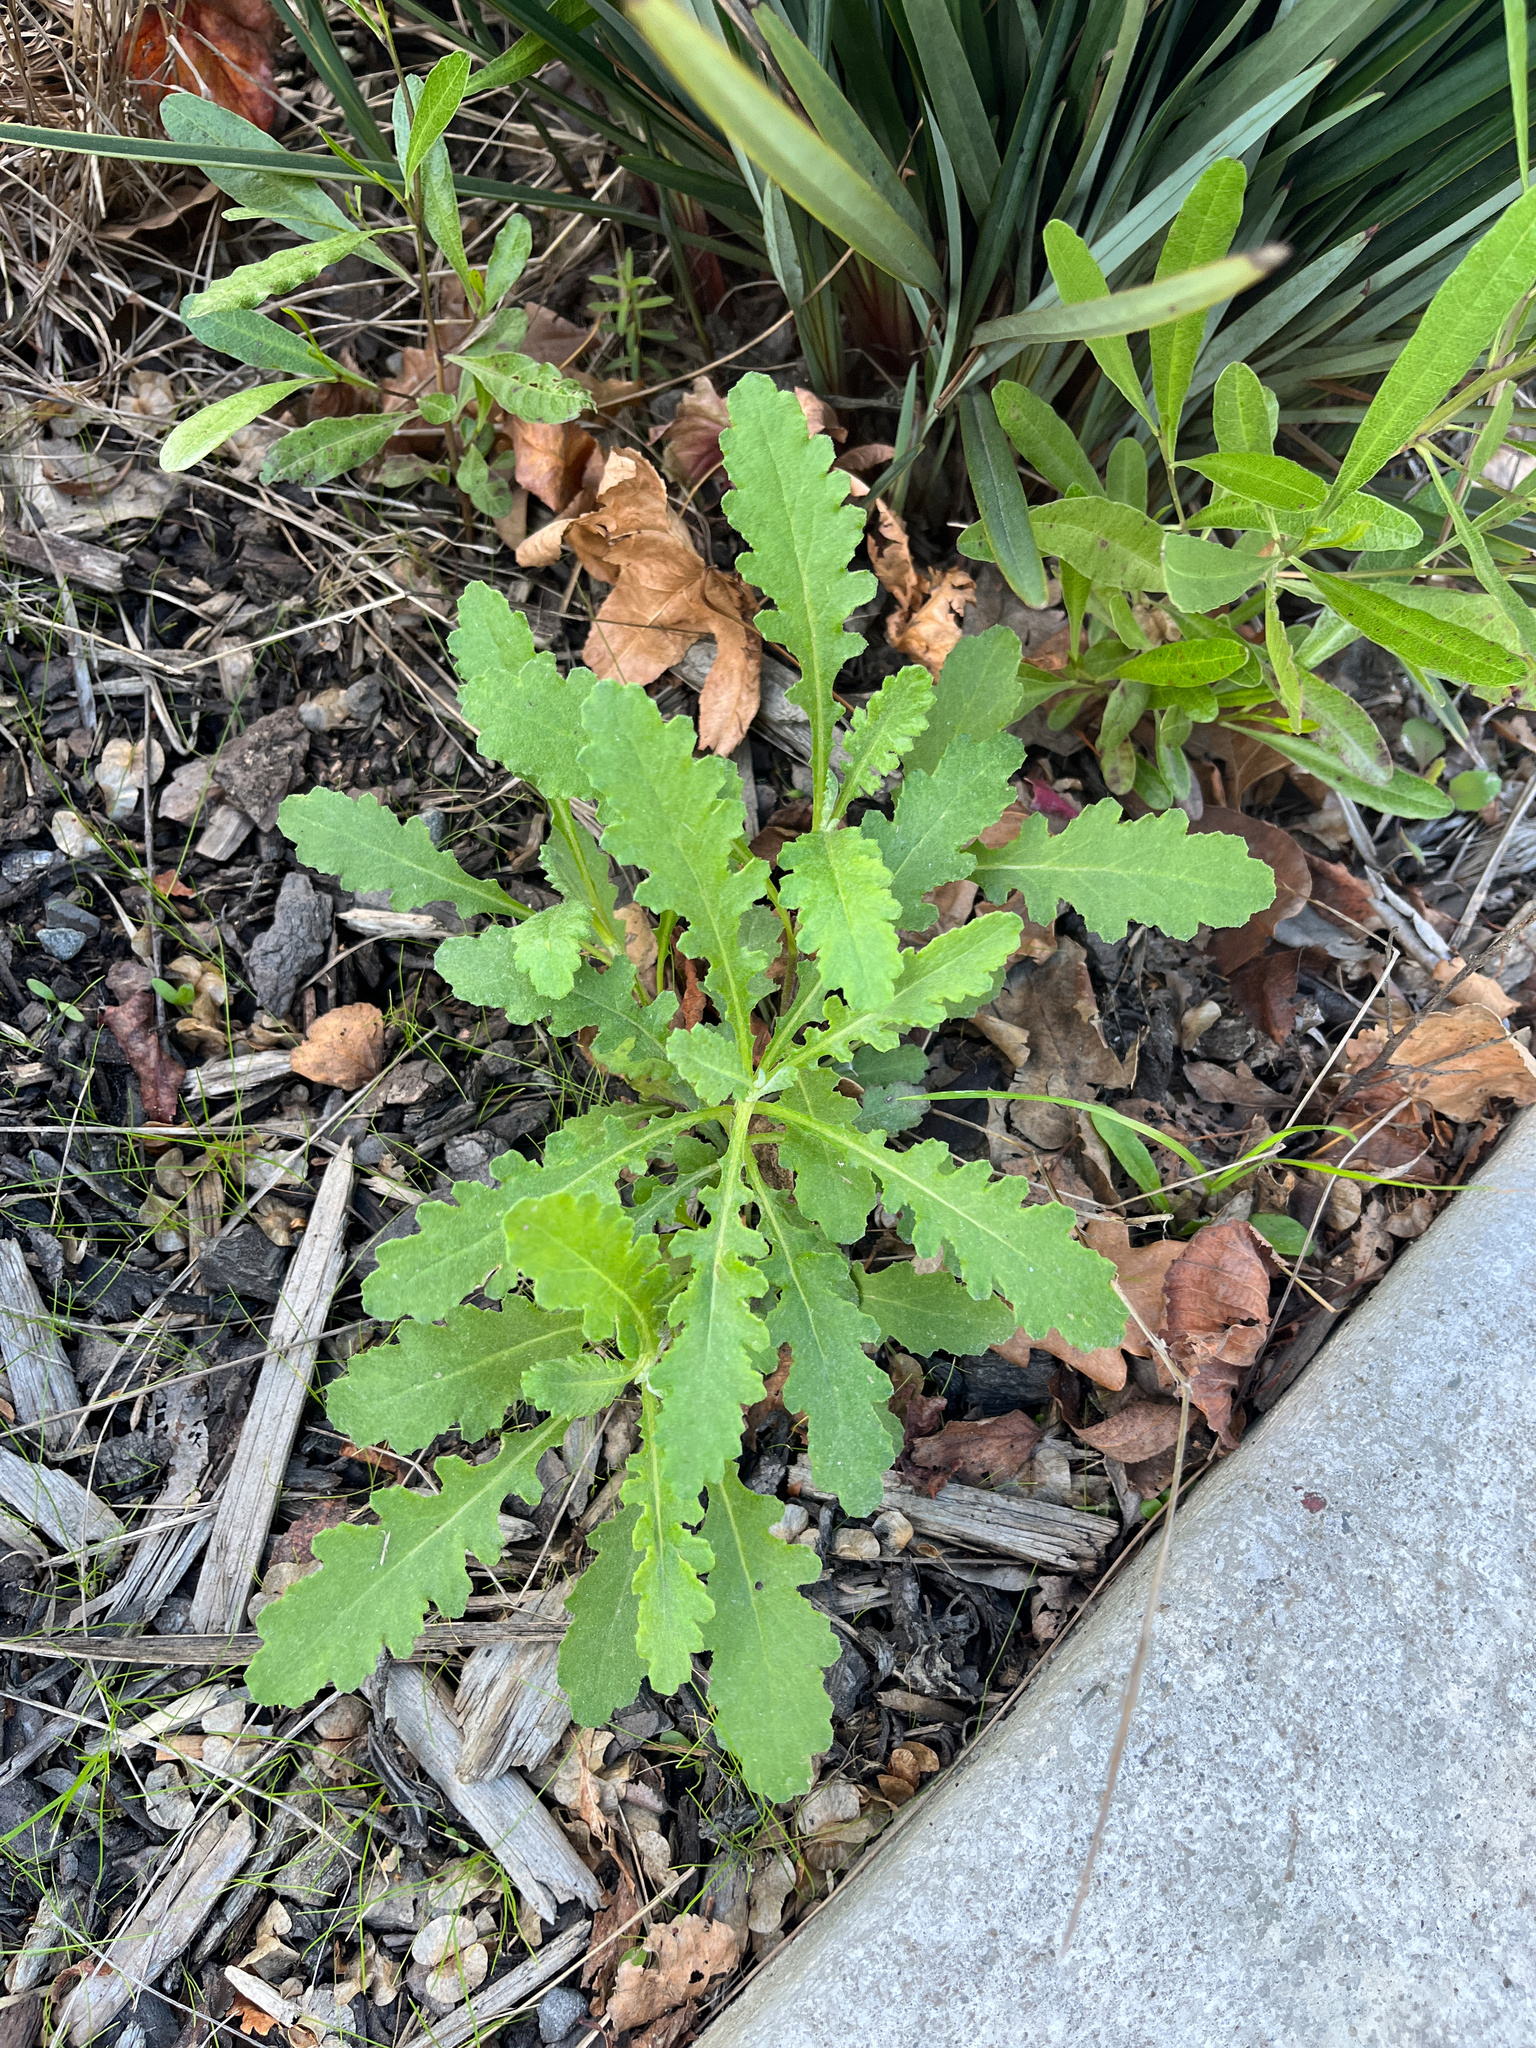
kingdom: Plantae
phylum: Tracheophyta
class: Magnoliopsida
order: Sapindales
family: Sapindaceae
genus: Dodonaea
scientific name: Dodonaea viscosa
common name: Hopbush
